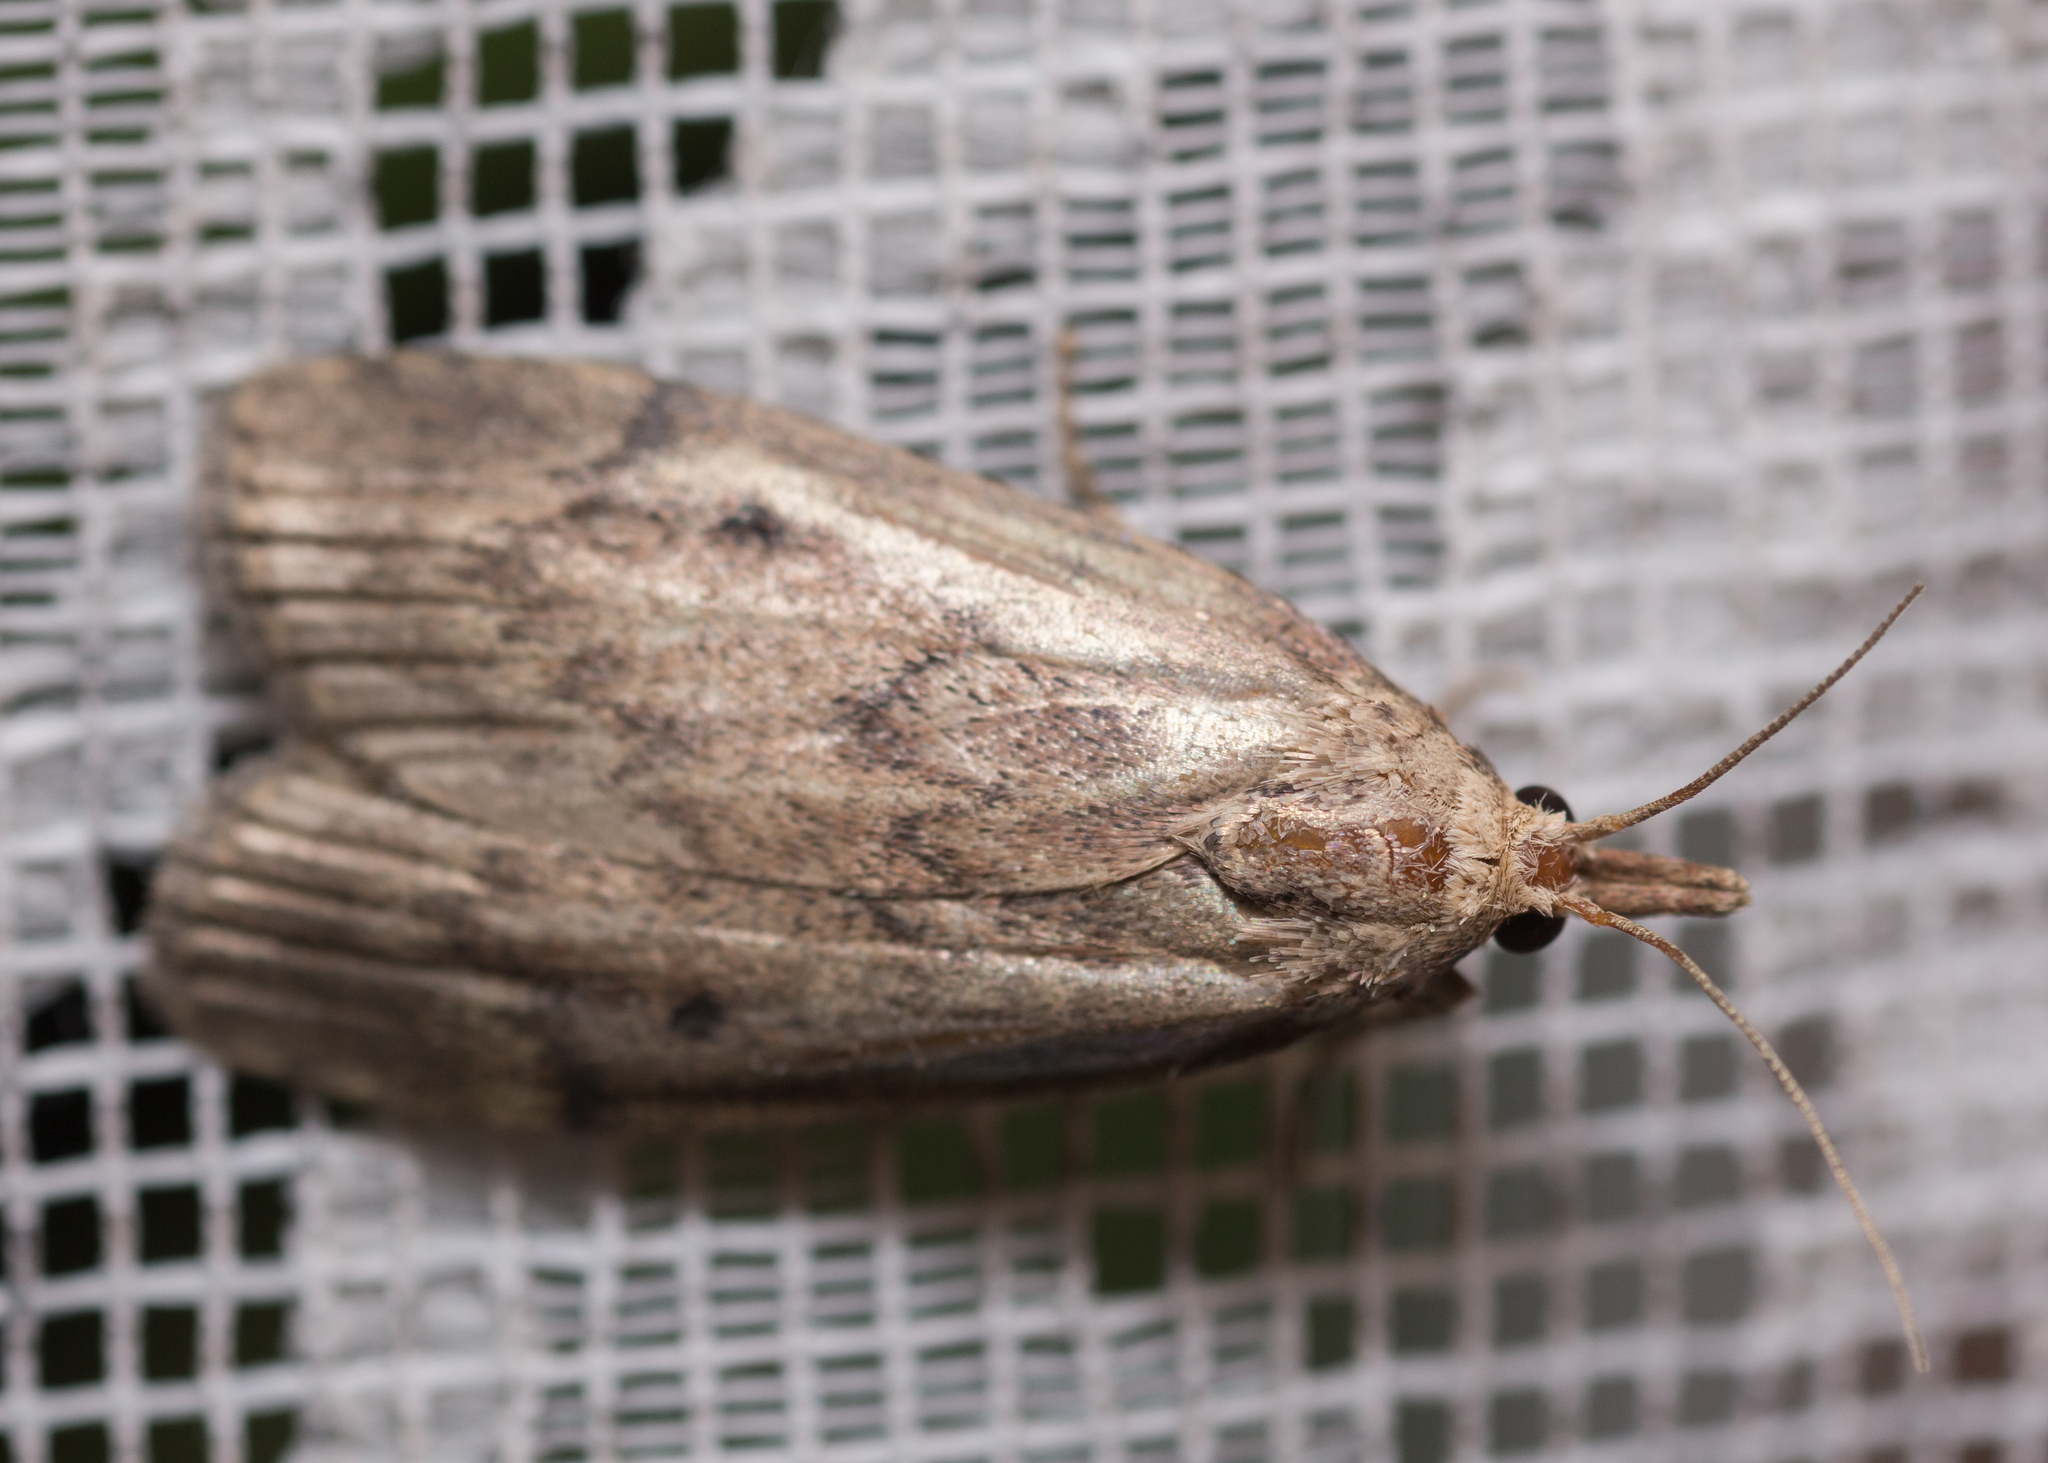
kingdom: Animalia
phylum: Arthropoda
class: Insecta
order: Lepidoptera
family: Pyralidae
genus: Aphomia
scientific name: Aphomia sociella
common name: Bee moth
